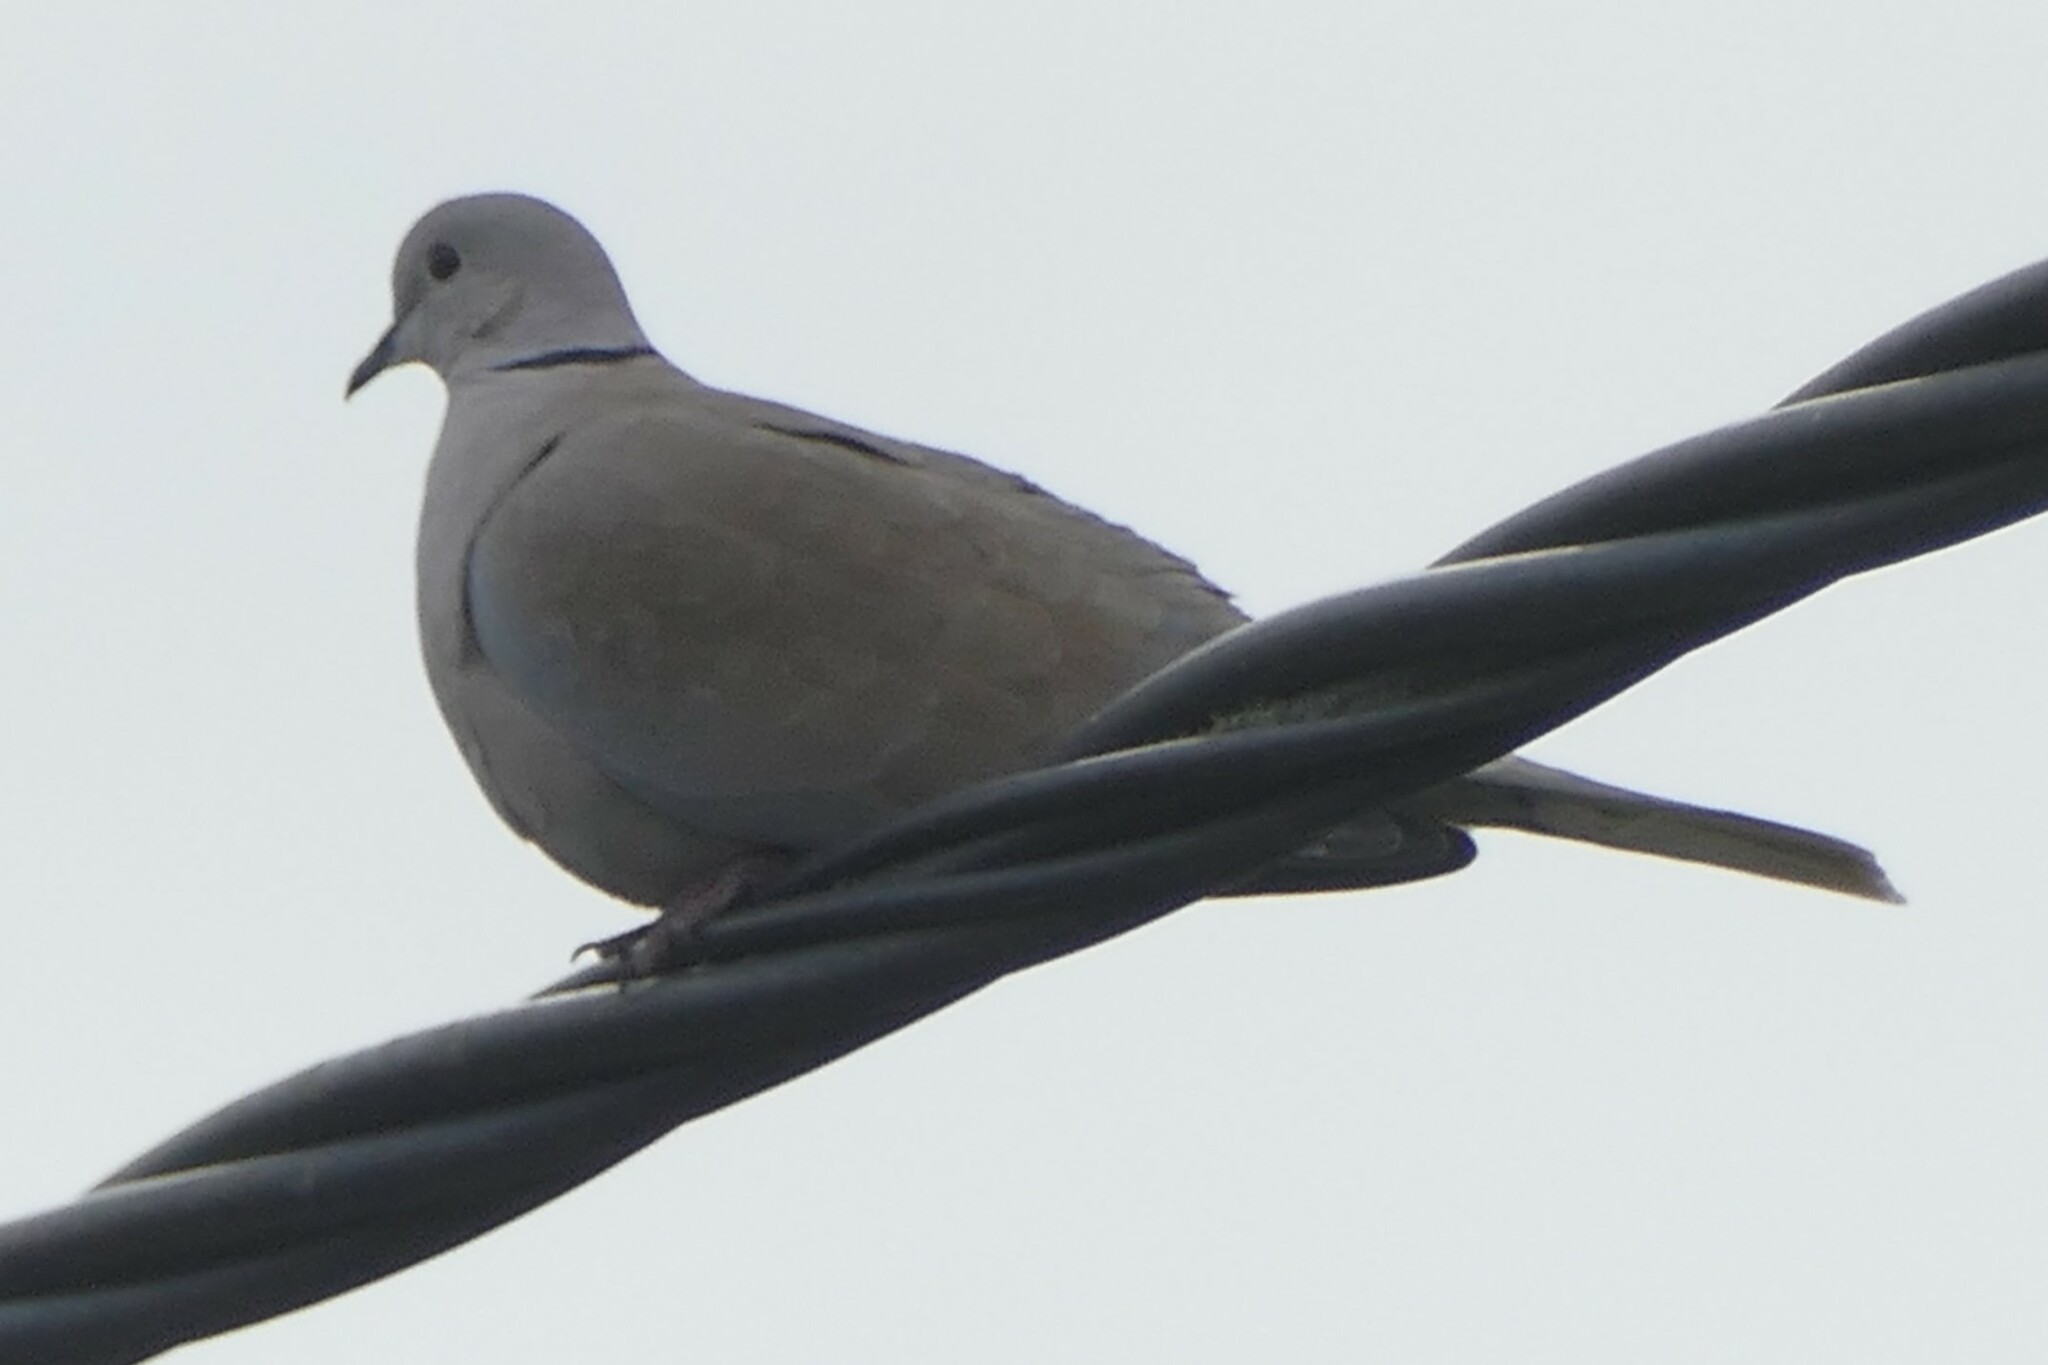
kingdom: Animalia
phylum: Chordata
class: Aves
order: Columbiformes
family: Columbidae
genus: Streptopelia
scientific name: Streptopelia decaocto
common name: Eurasian collared dove
